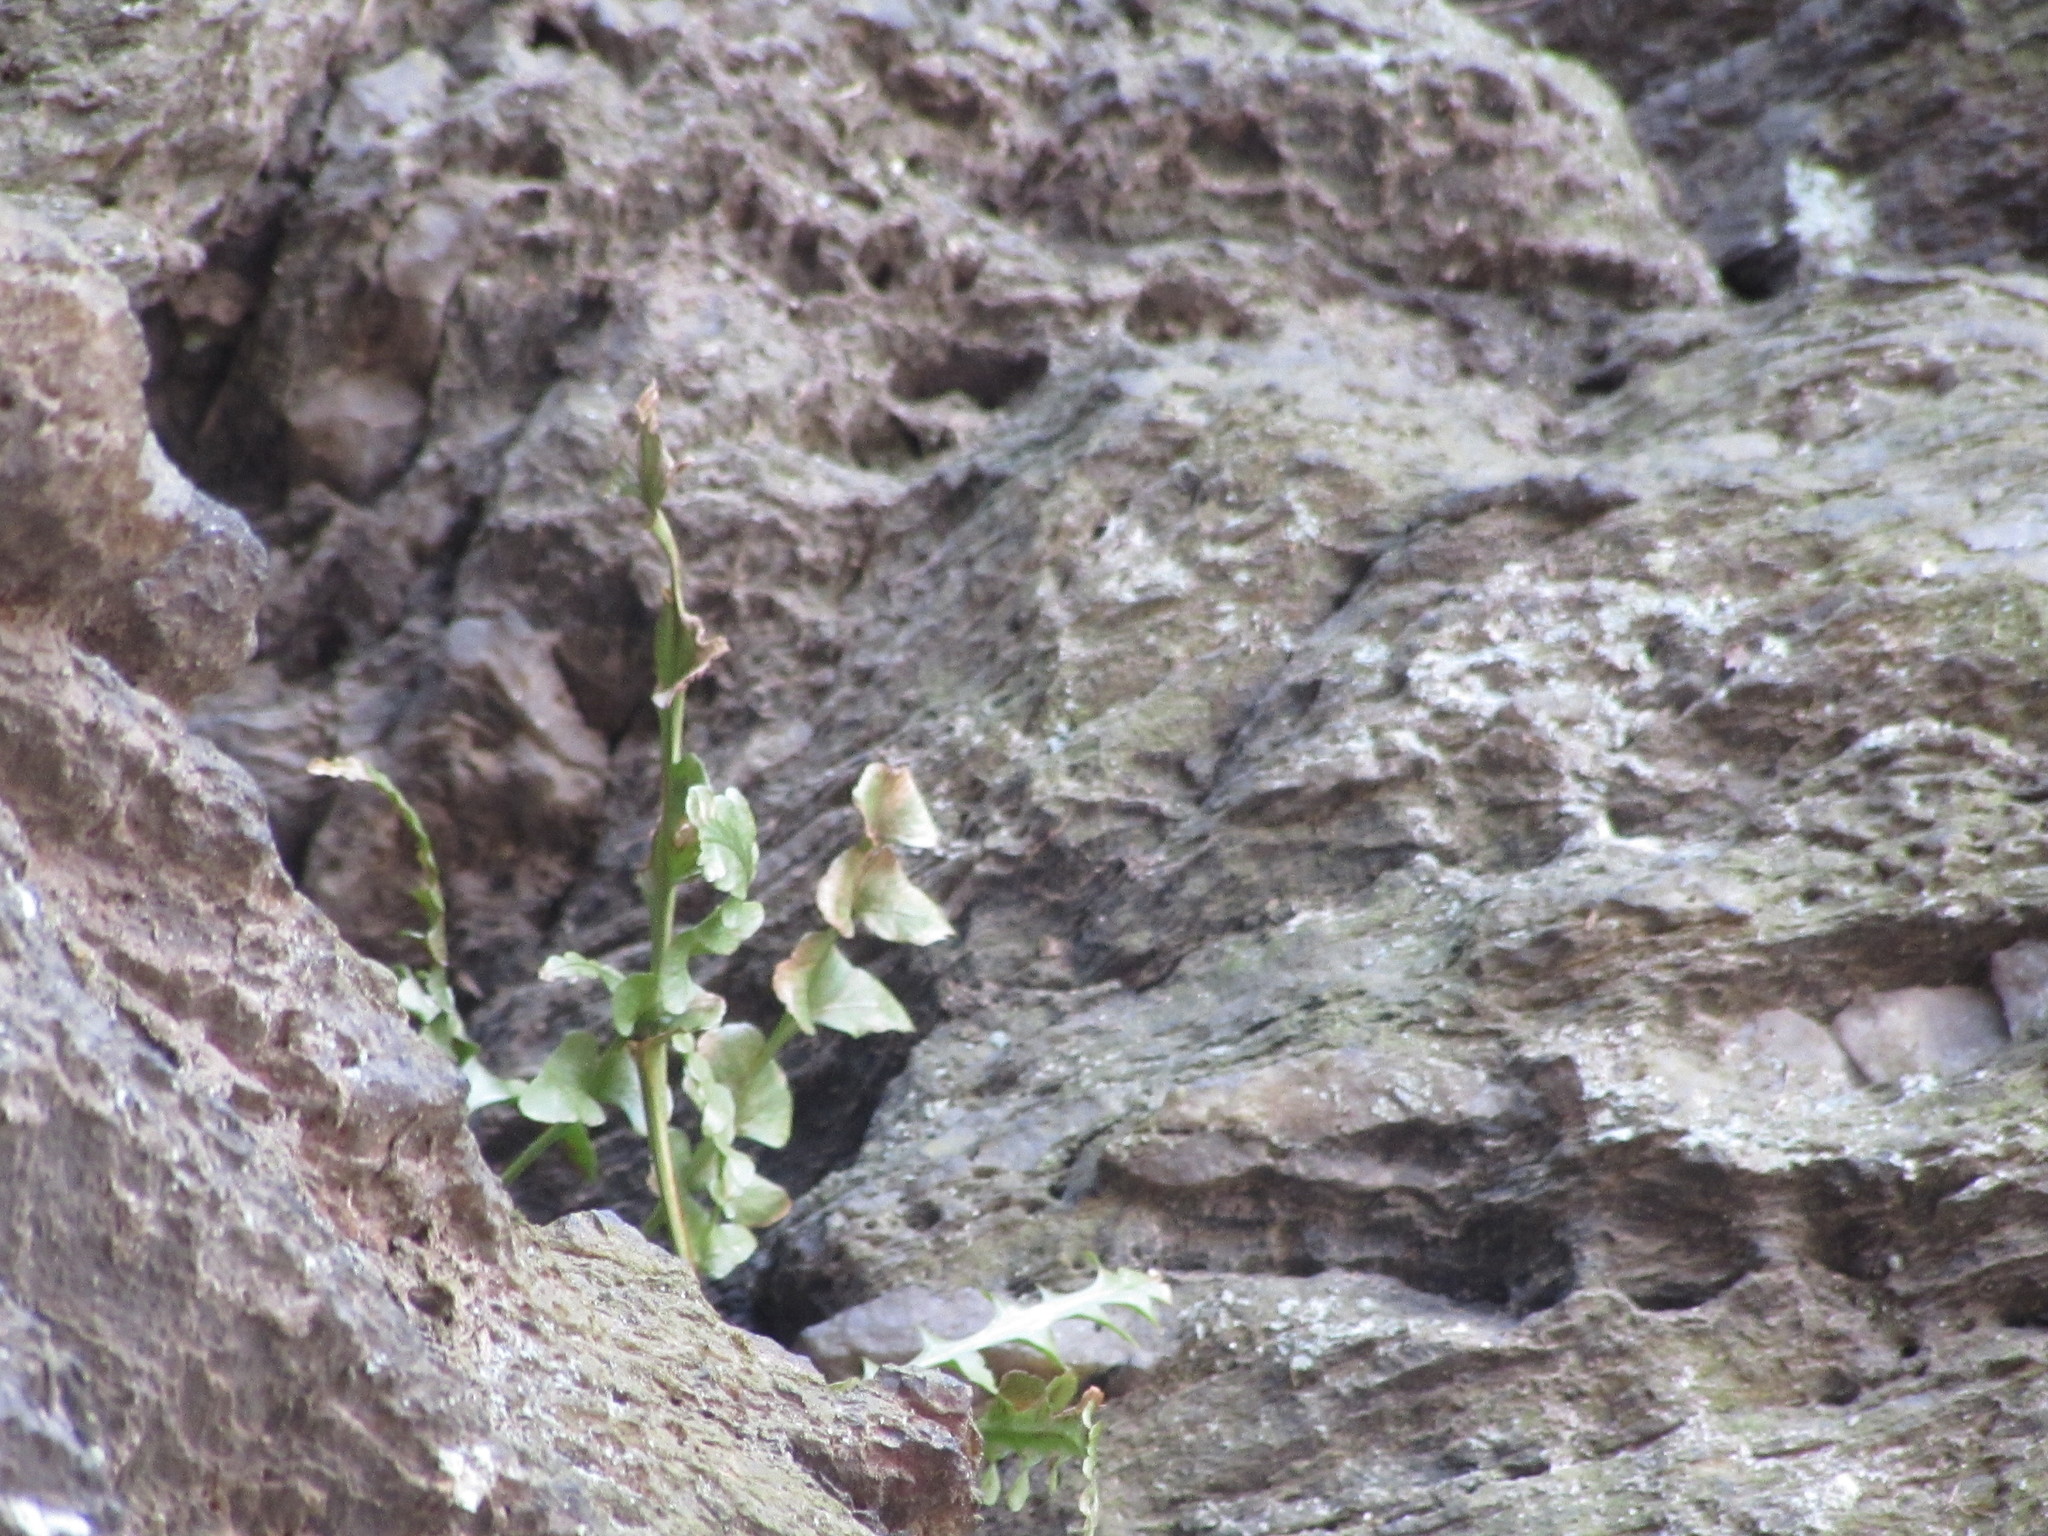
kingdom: Plantae
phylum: Tracheophyta
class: Polypodiopsida
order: Polypodiales
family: Aspleniaceae
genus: Asplenium
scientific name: Asplenium pinnatifidum
